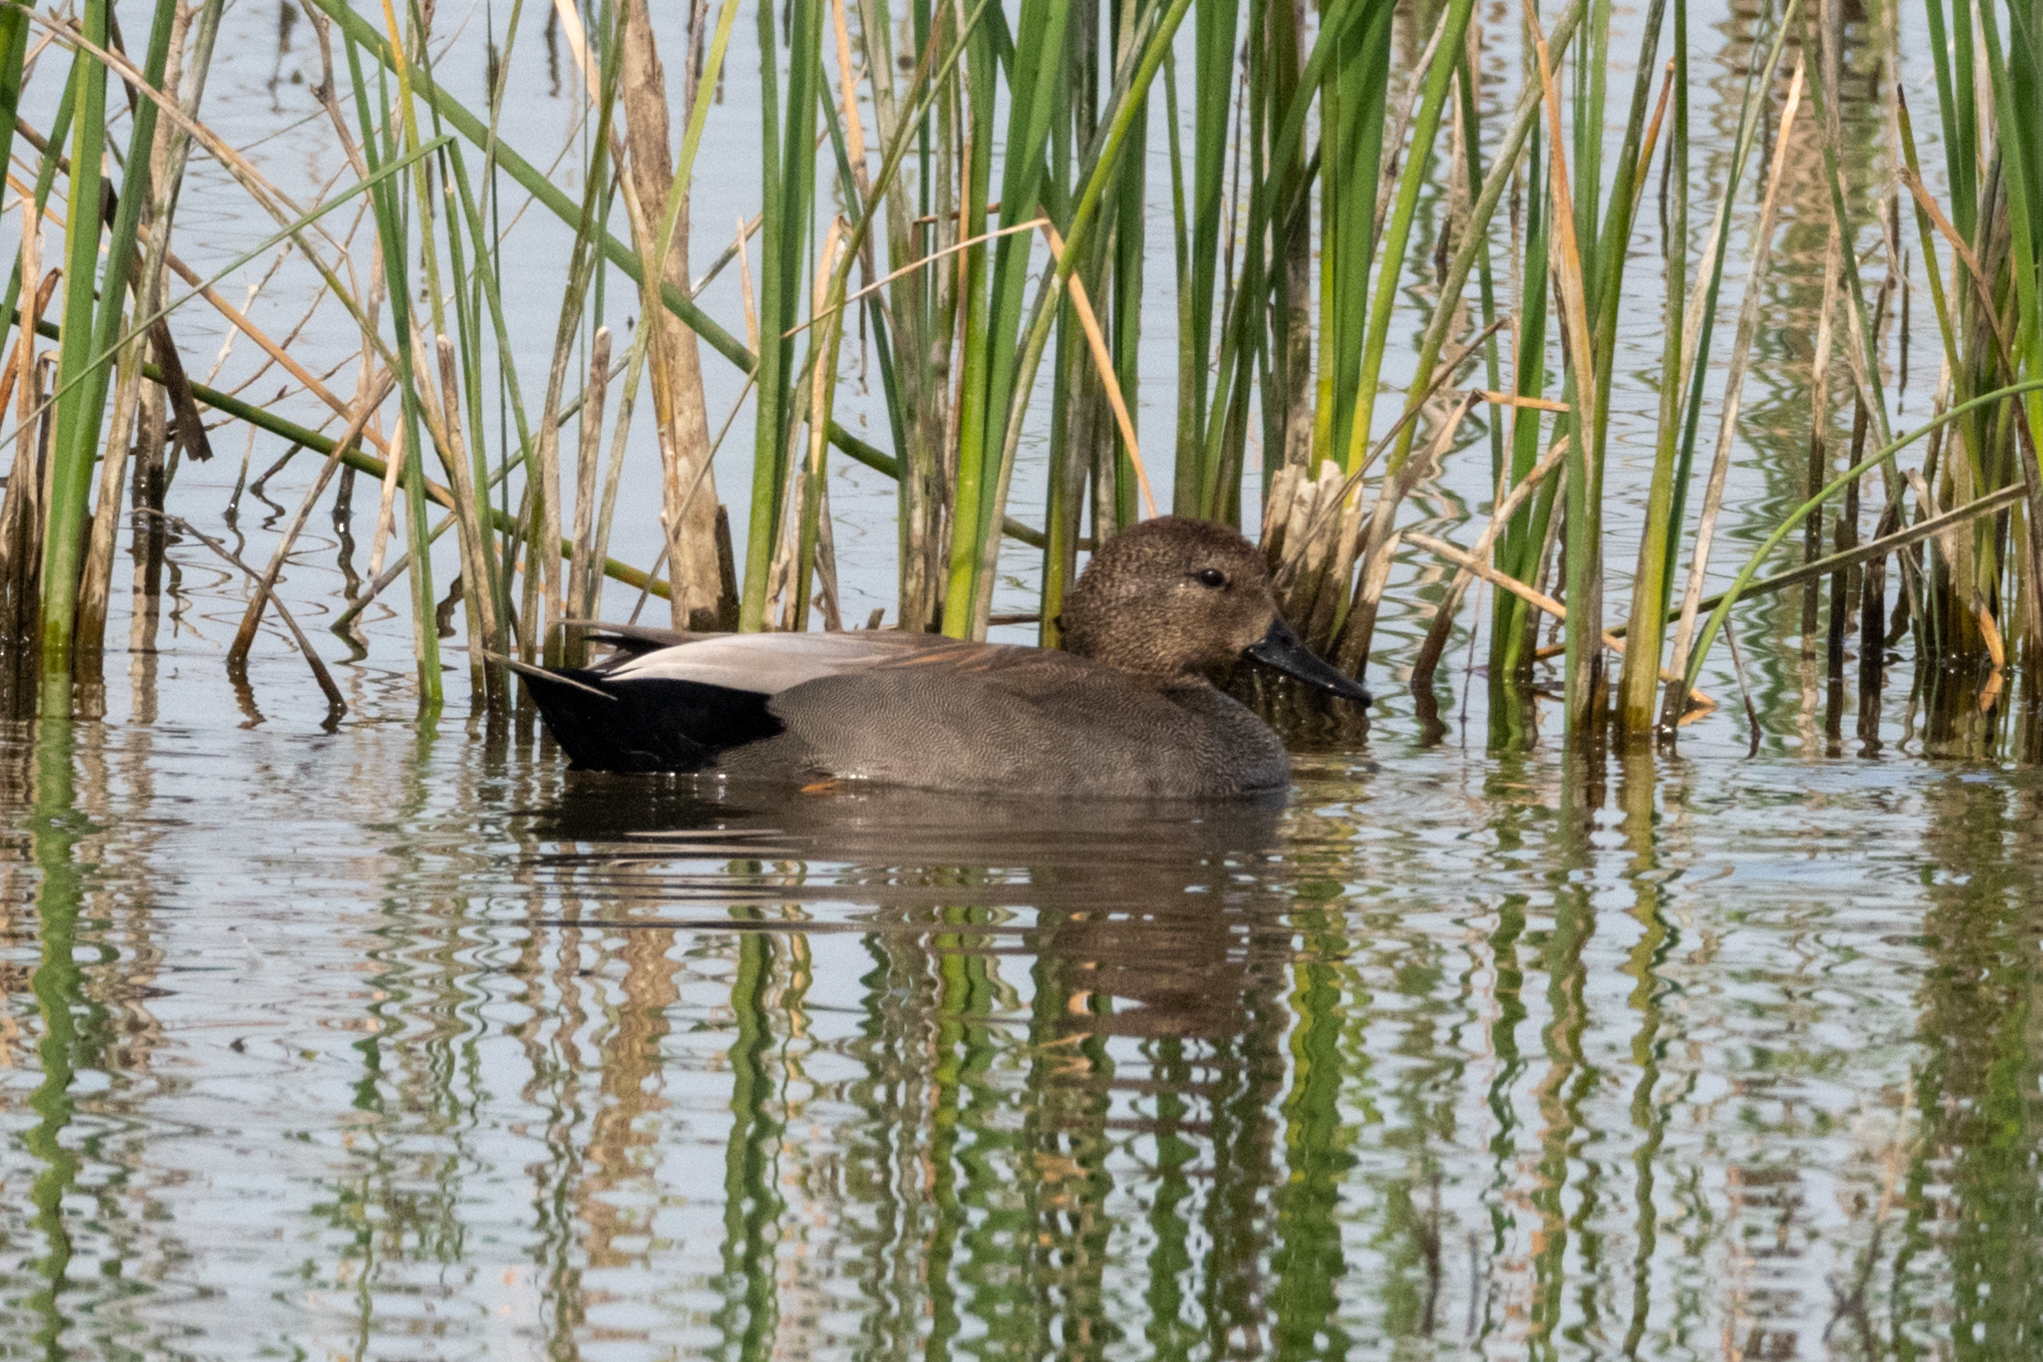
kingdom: Animalia
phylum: Chordata
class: Aves
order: Anseriformes
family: Anatidae
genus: Mareca
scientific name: Mareca strepera
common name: Gadwall
